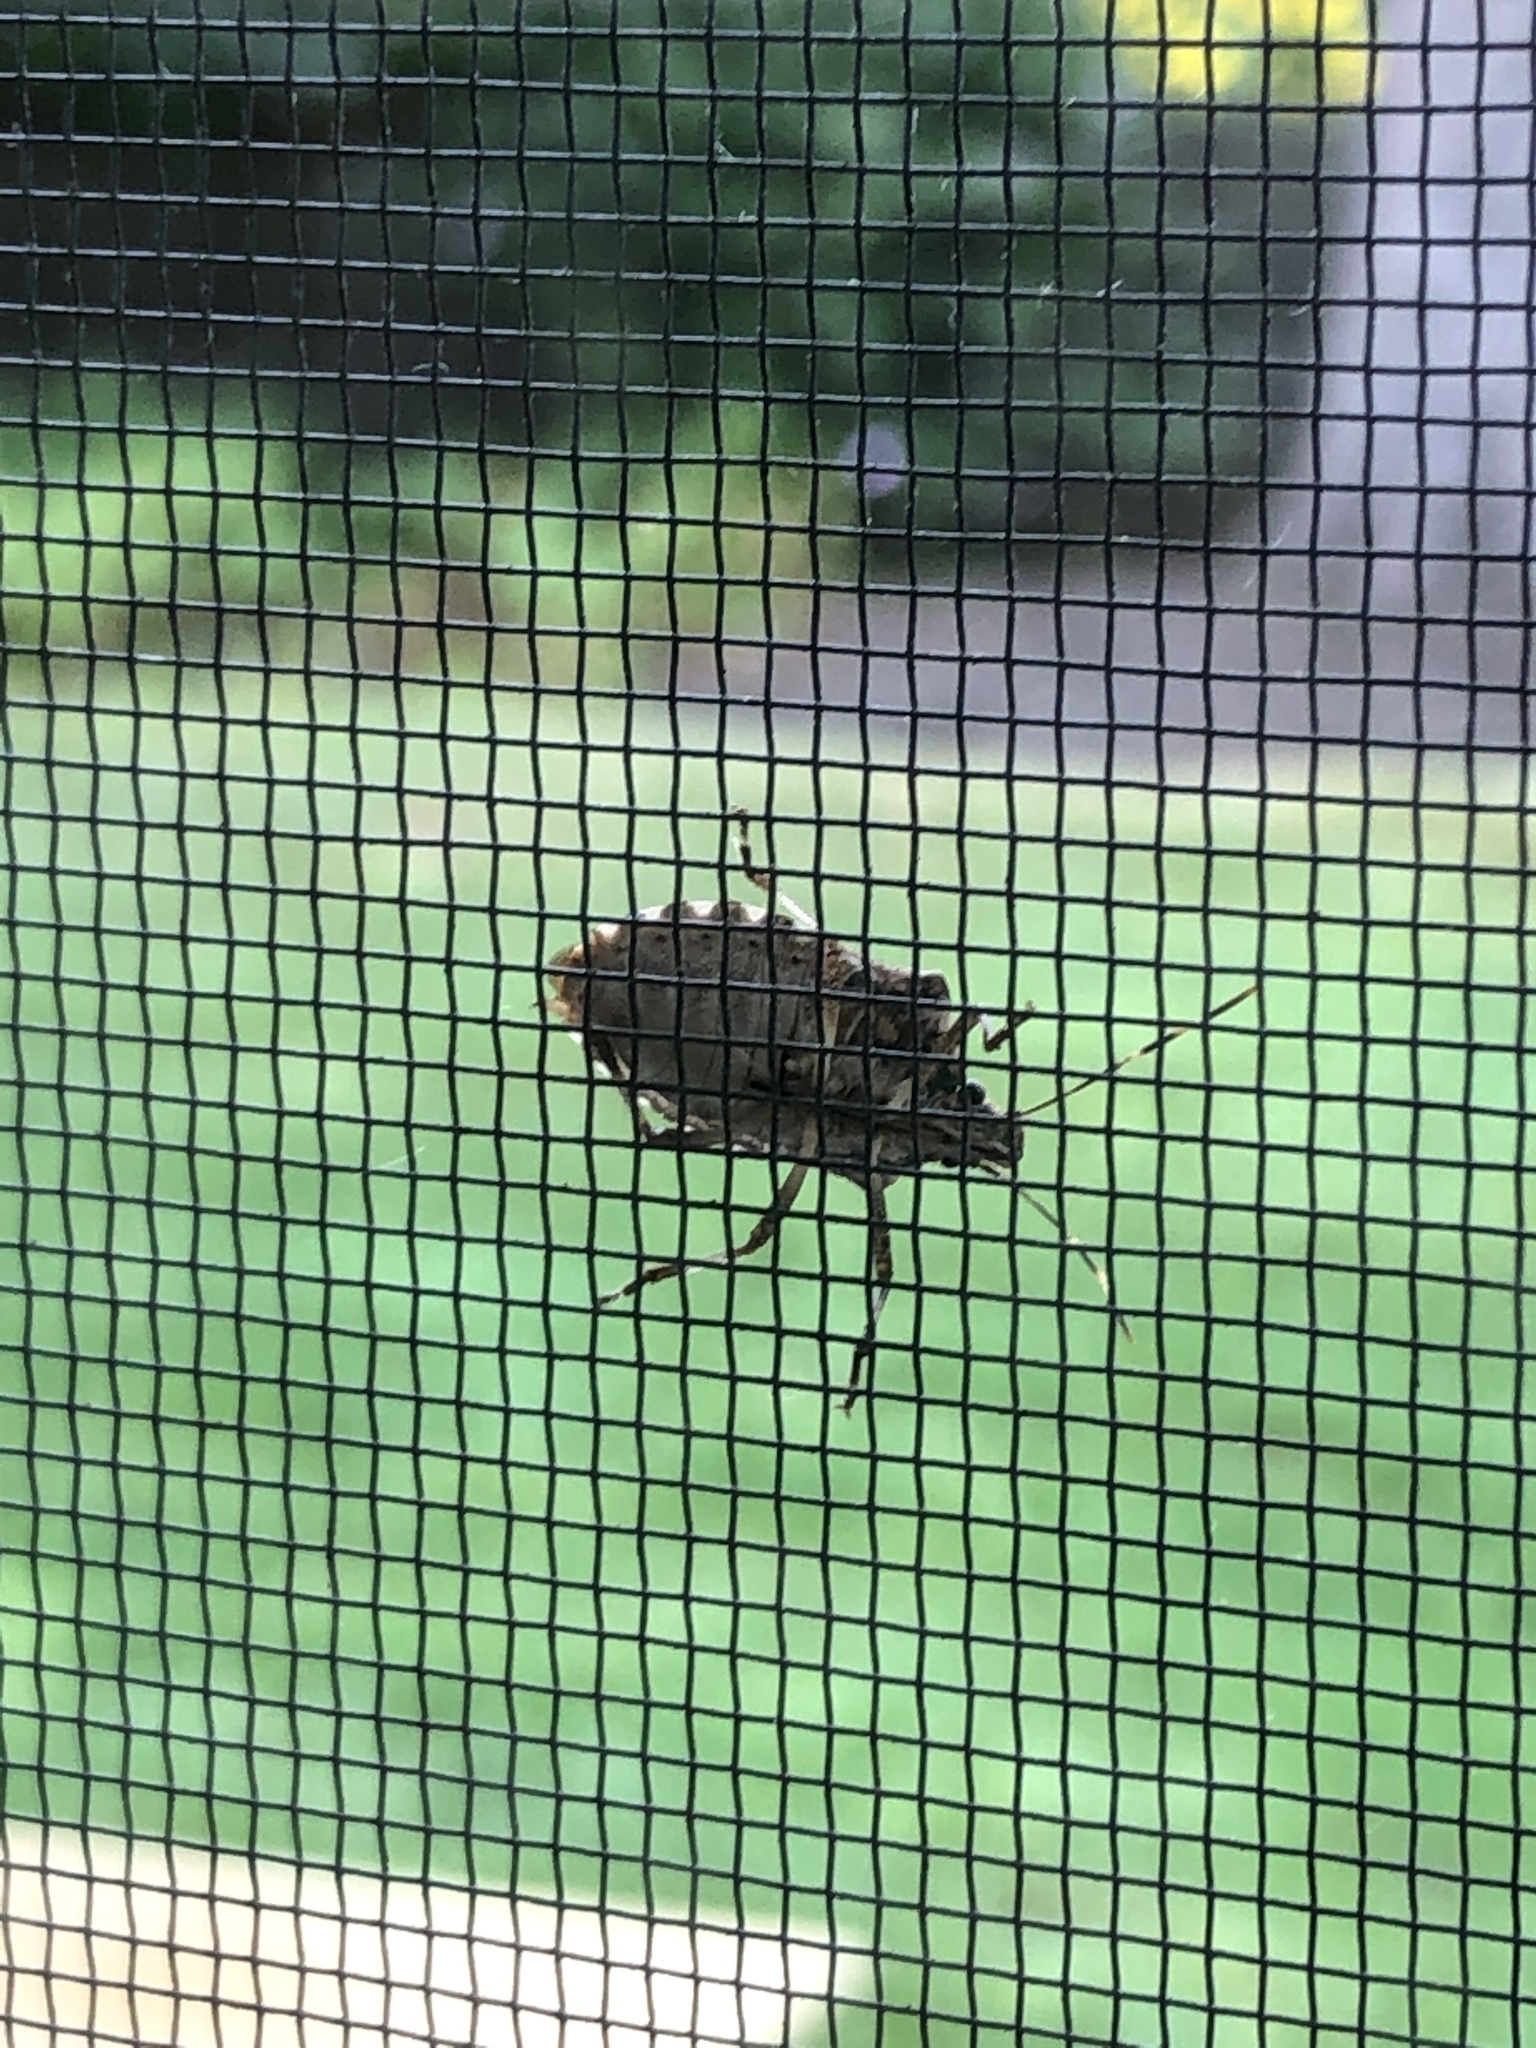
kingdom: Animalia
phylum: Arthropoda
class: Insecta
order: Hemiptera
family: Pentatomidae
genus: Halyomorpha
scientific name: Halyomorpha halys
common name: Brown marmorated stink bug
